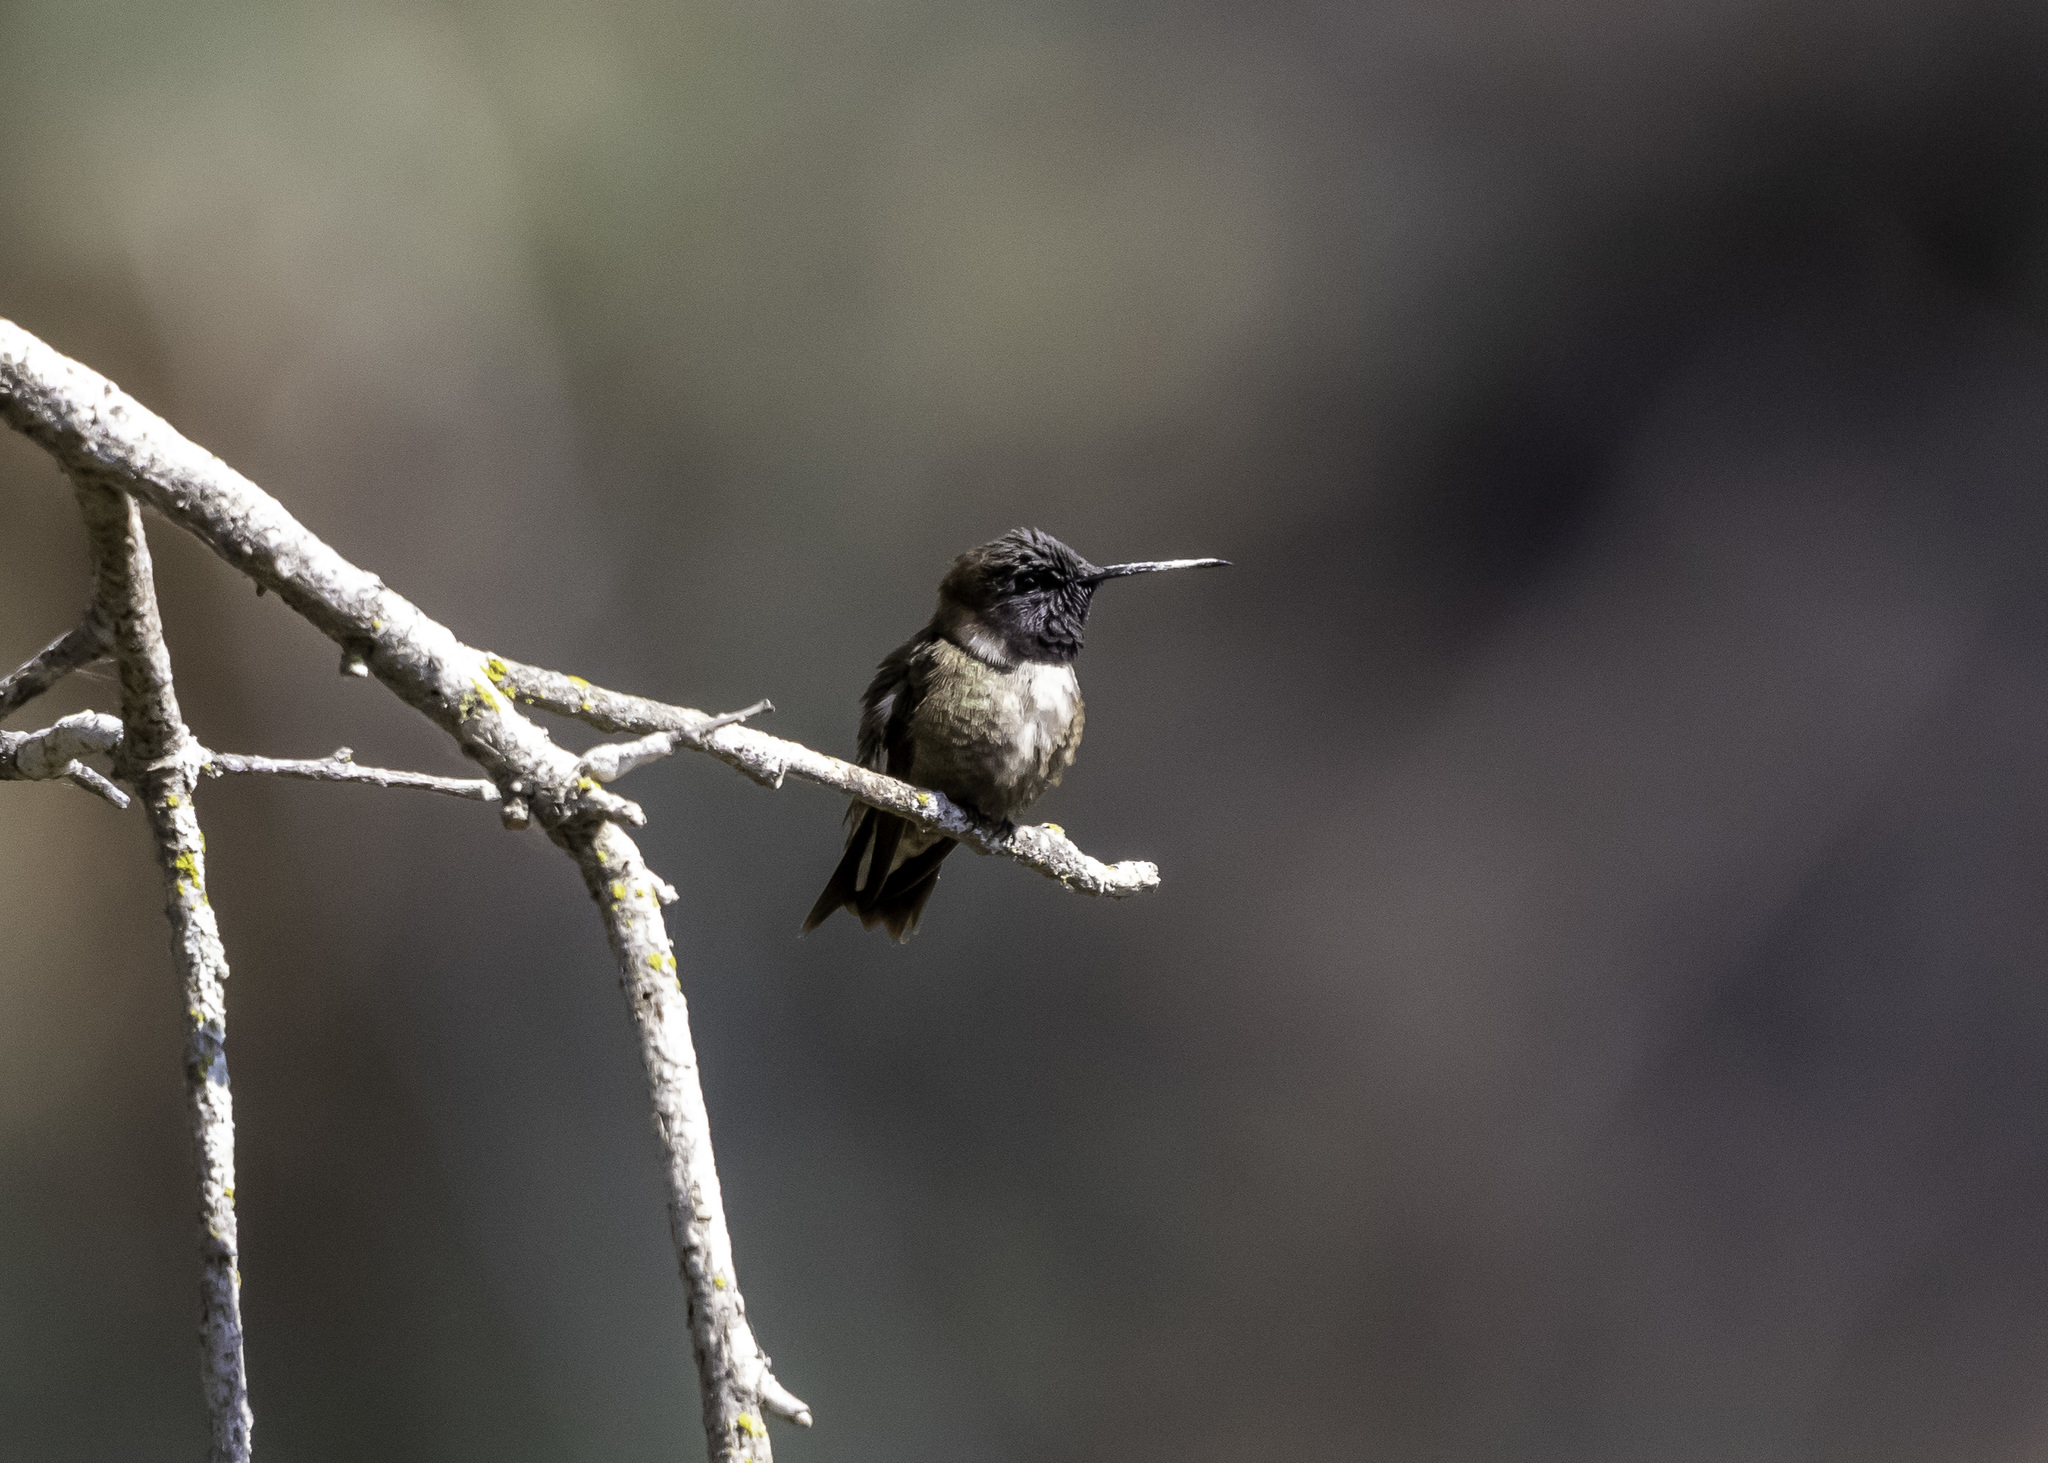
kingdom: Animalia
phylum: Chordata
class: Aves
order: Apodiformes
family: Trochilidae
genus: Archilochus
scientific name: Archilochus alexandri
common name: Black-chinned hummingbird
